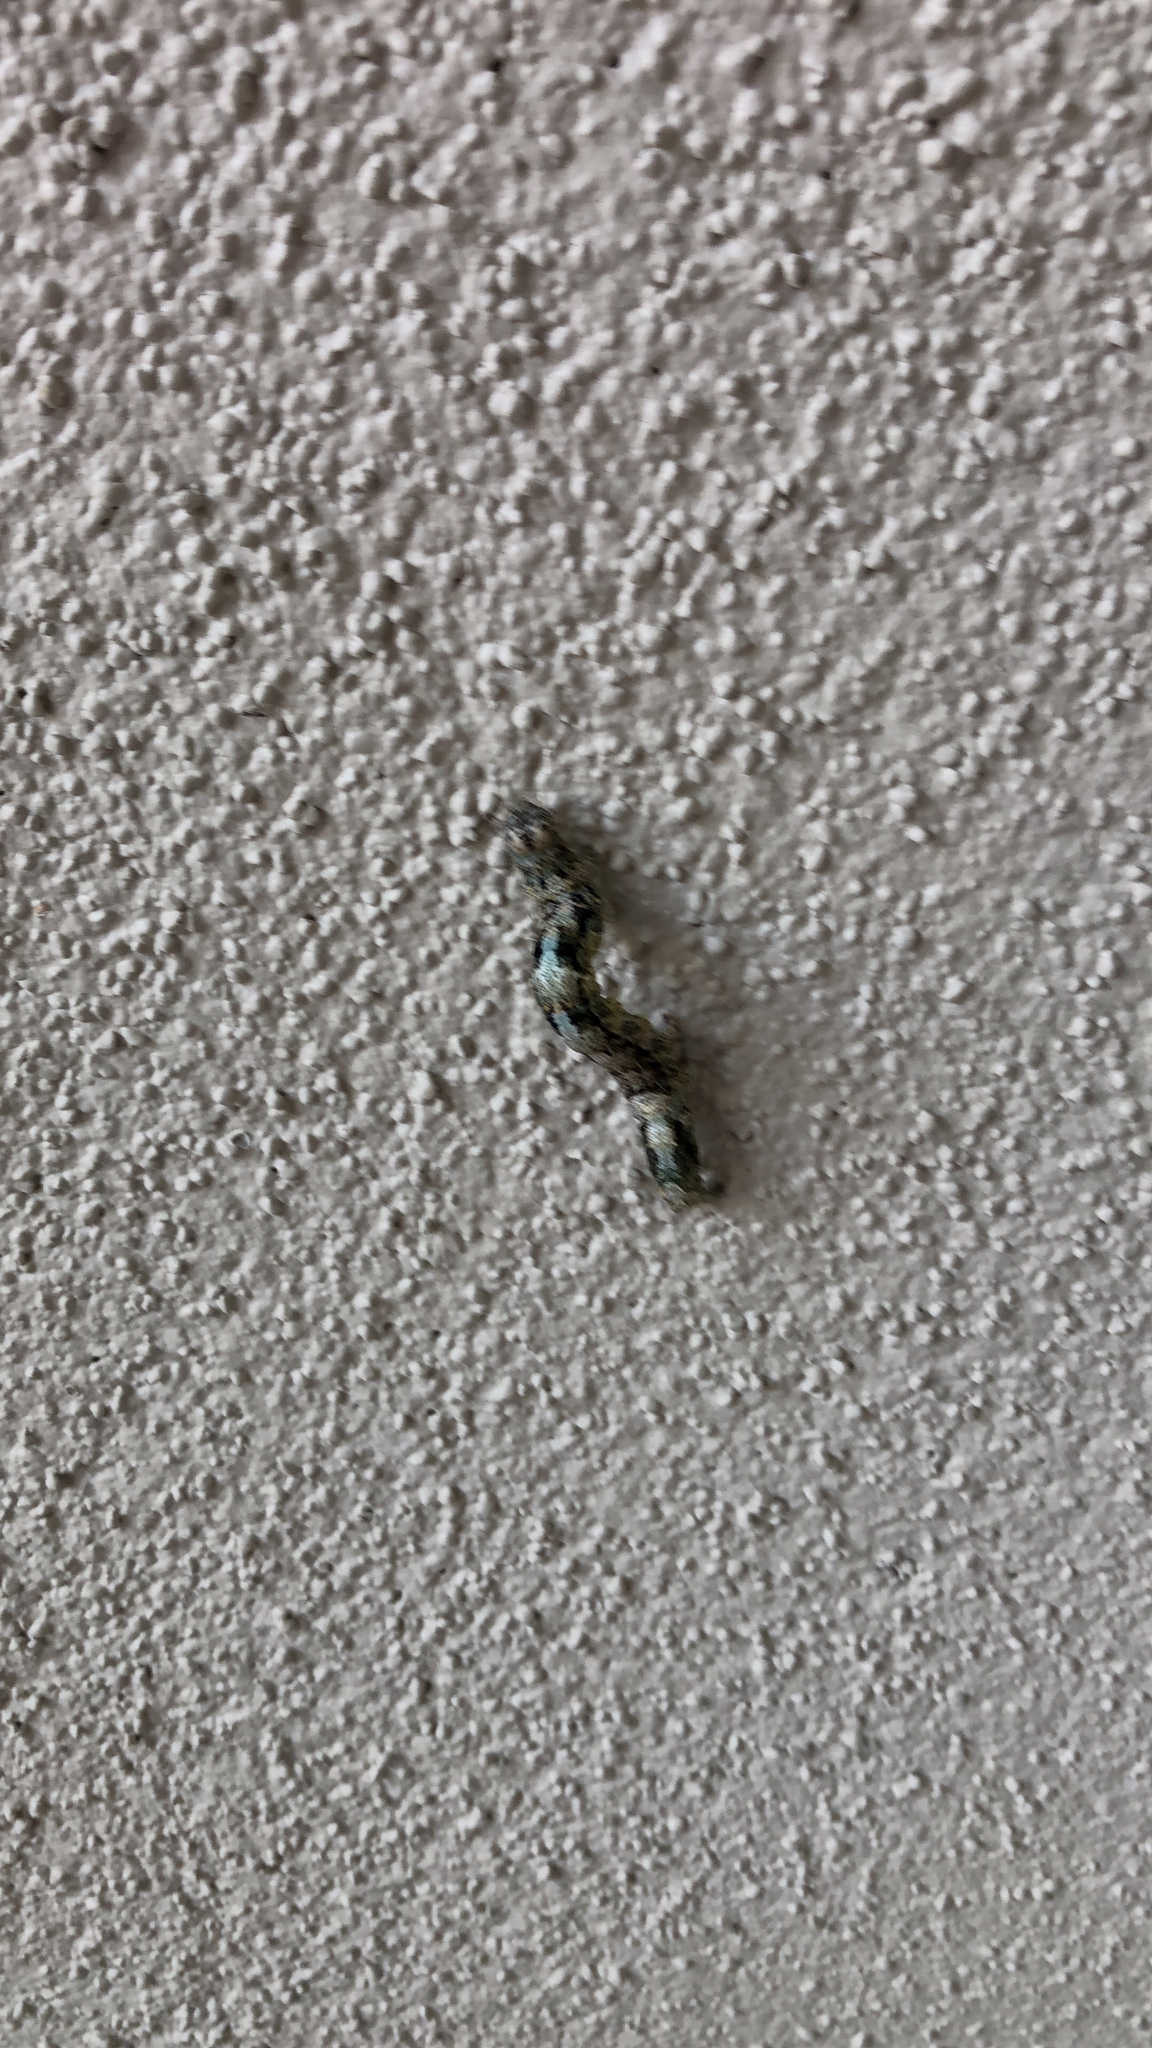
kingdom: Animalia
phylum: Arthropoda
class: Insecta
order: Lepidoptera
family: Erebidae
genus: Metria
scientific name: Metria amella
